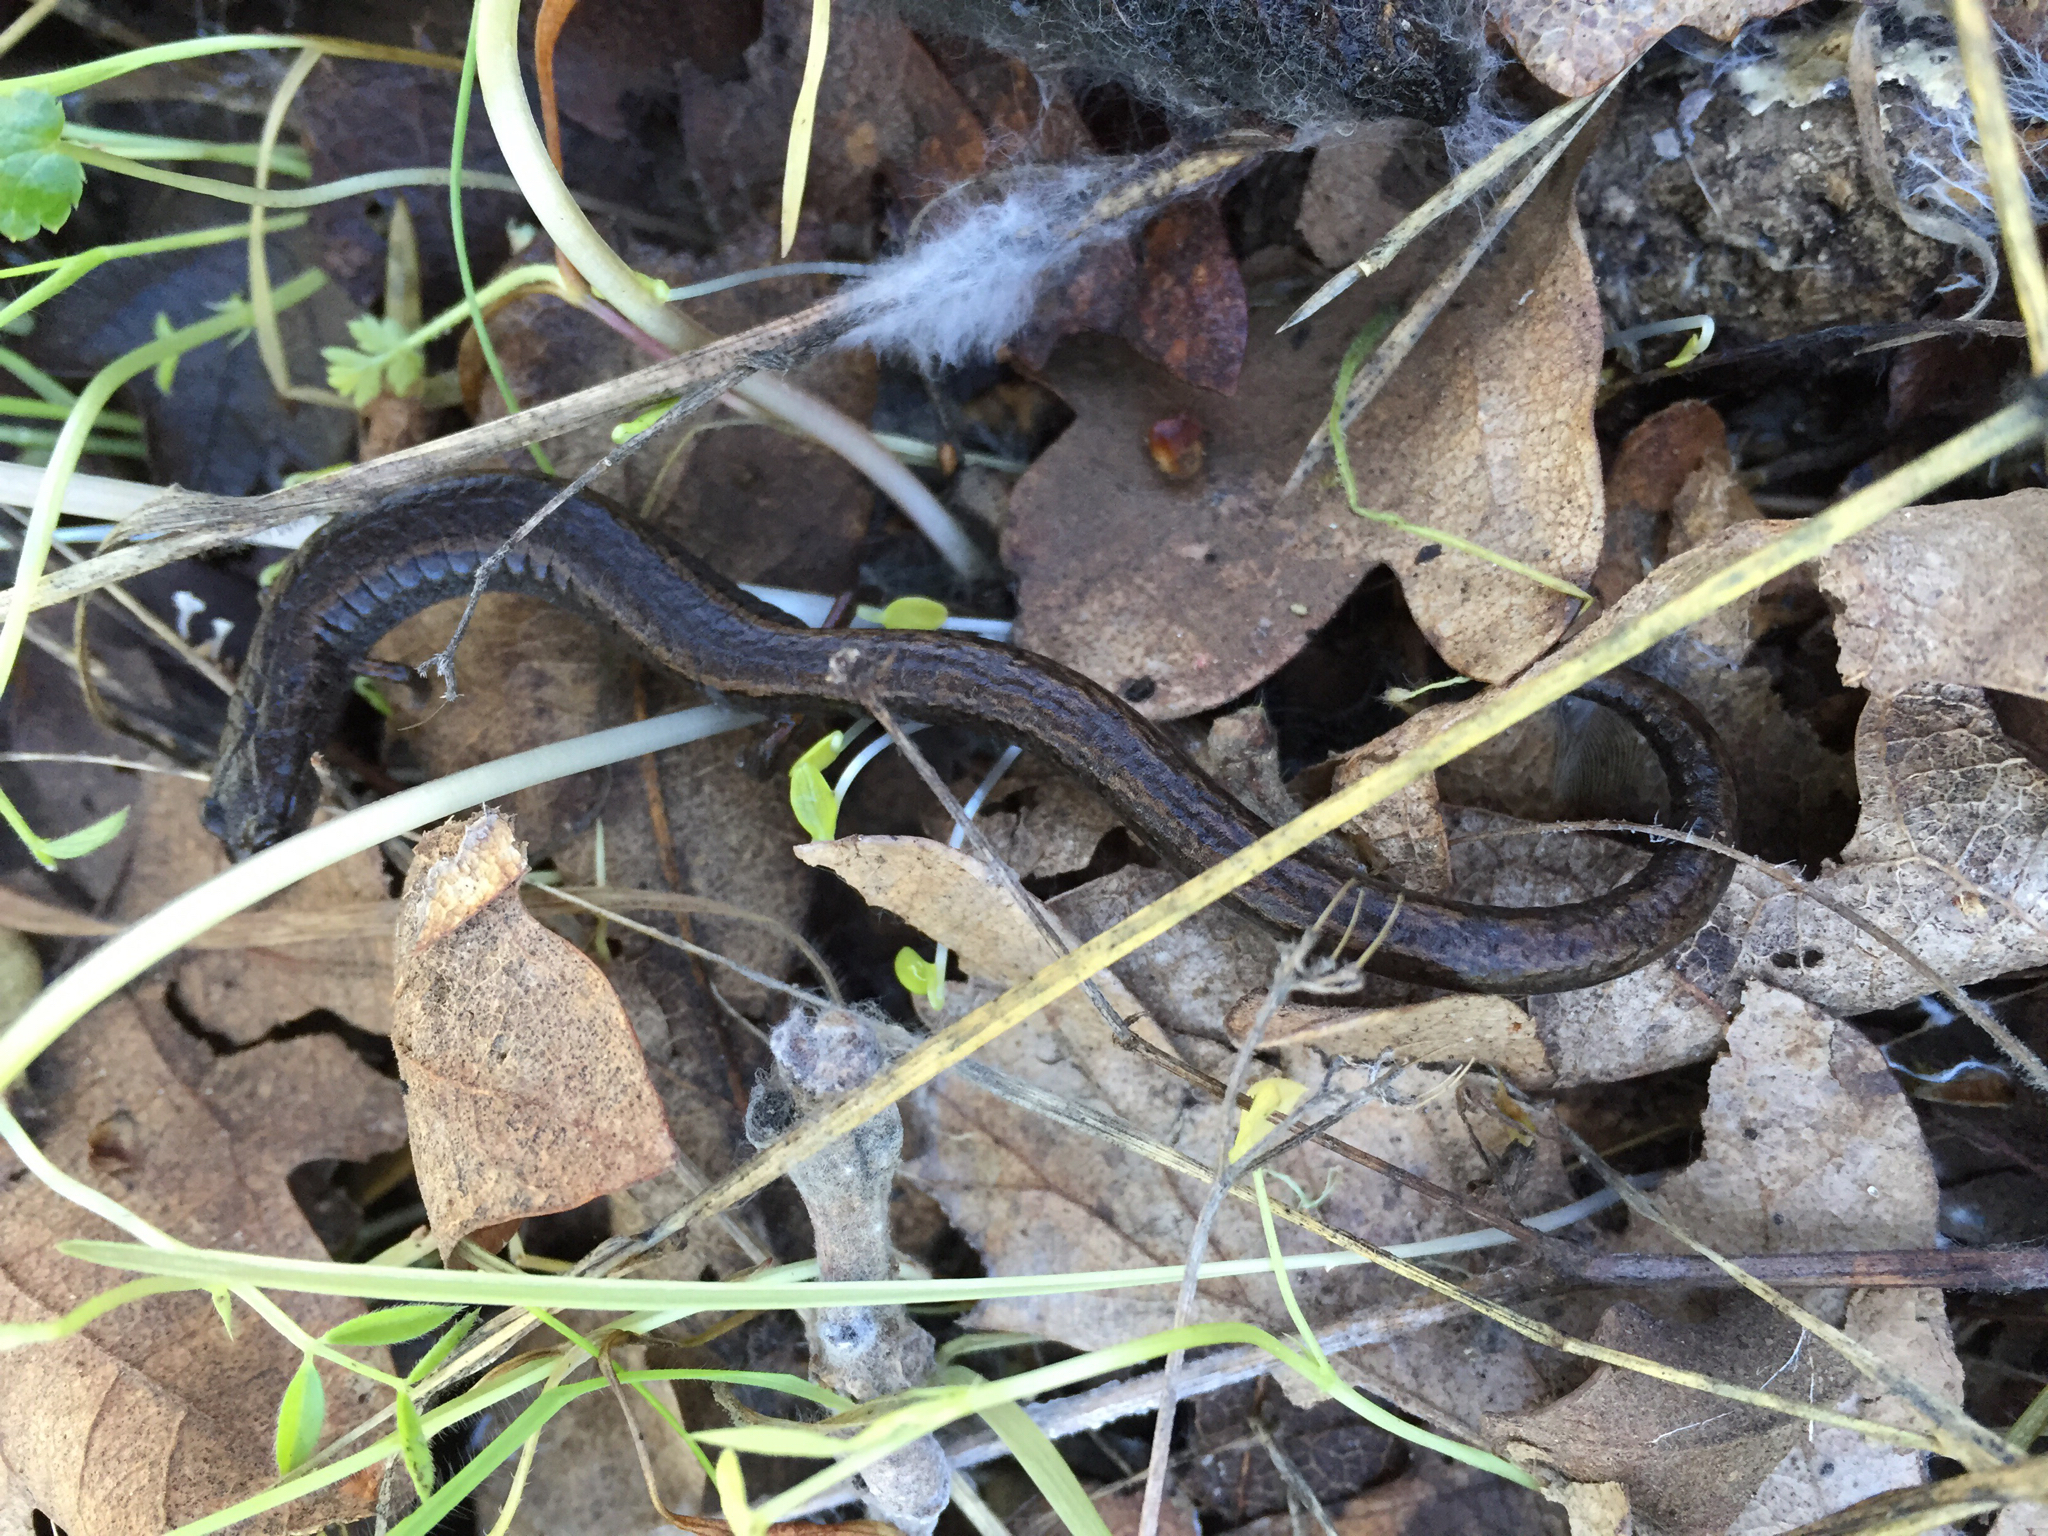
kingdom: Animalia
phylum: Chordata
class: Amphibia
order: Caudata
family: Plethodontidae
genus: Batrachoseps
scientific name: Batrachoseps attenuatus
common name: California slender salamander
